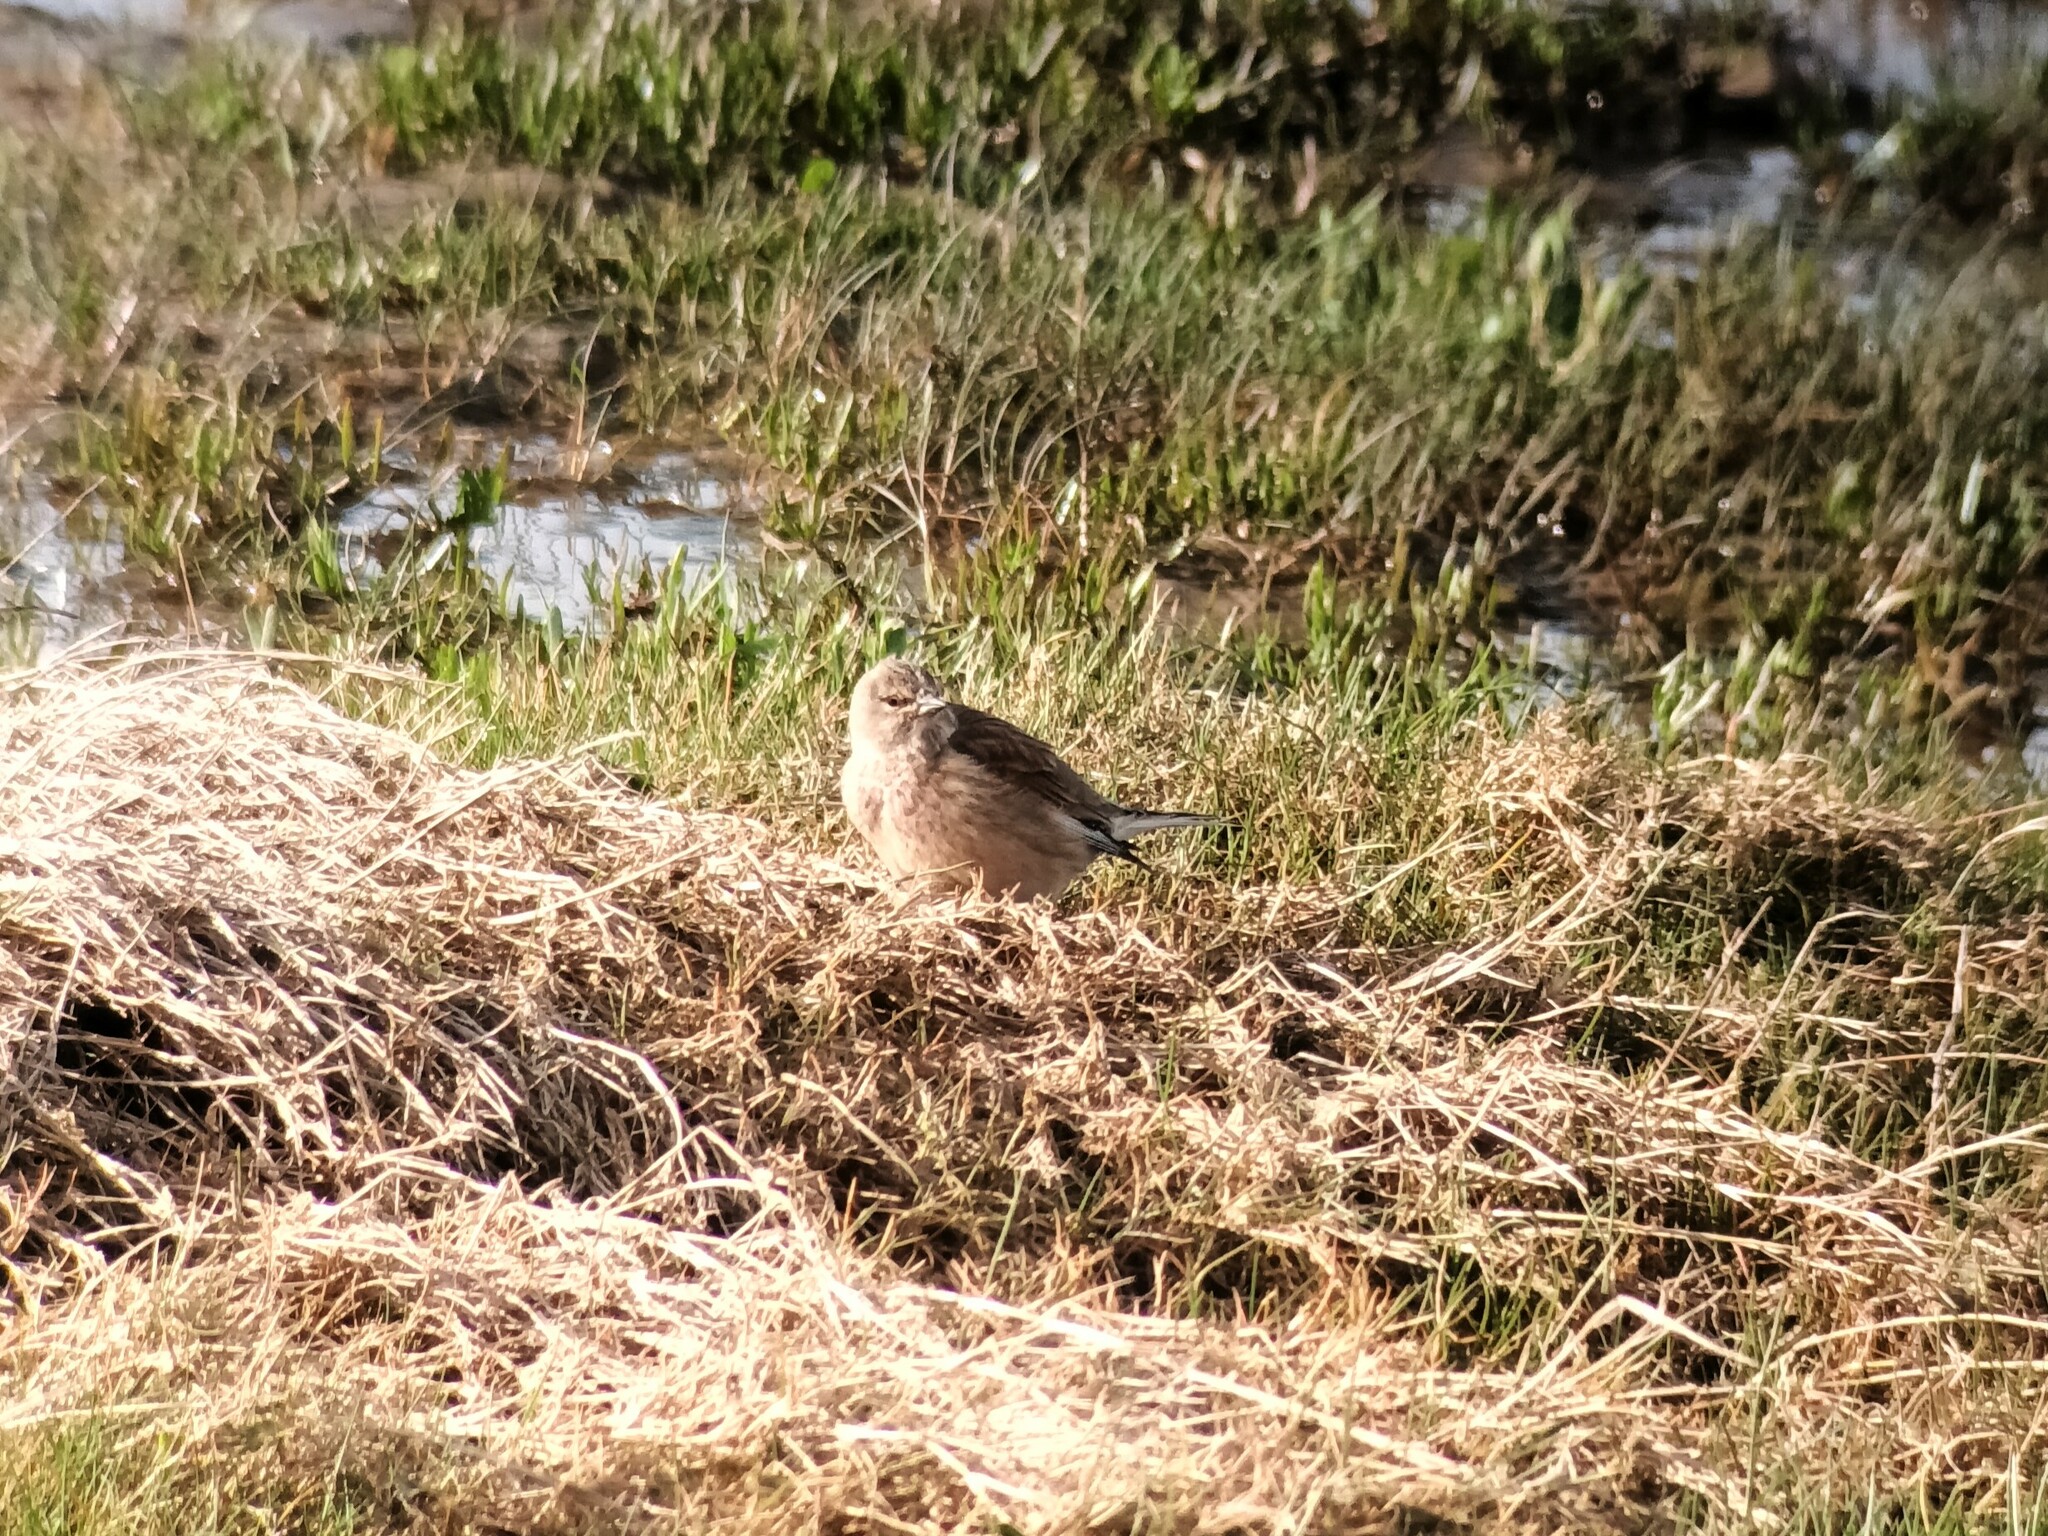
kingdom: Animalia
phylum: Chordata
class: Aves
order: Passeriformes
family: Fringillidae
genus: Linaria
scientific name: Linaria cannabina
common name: Common linnet
